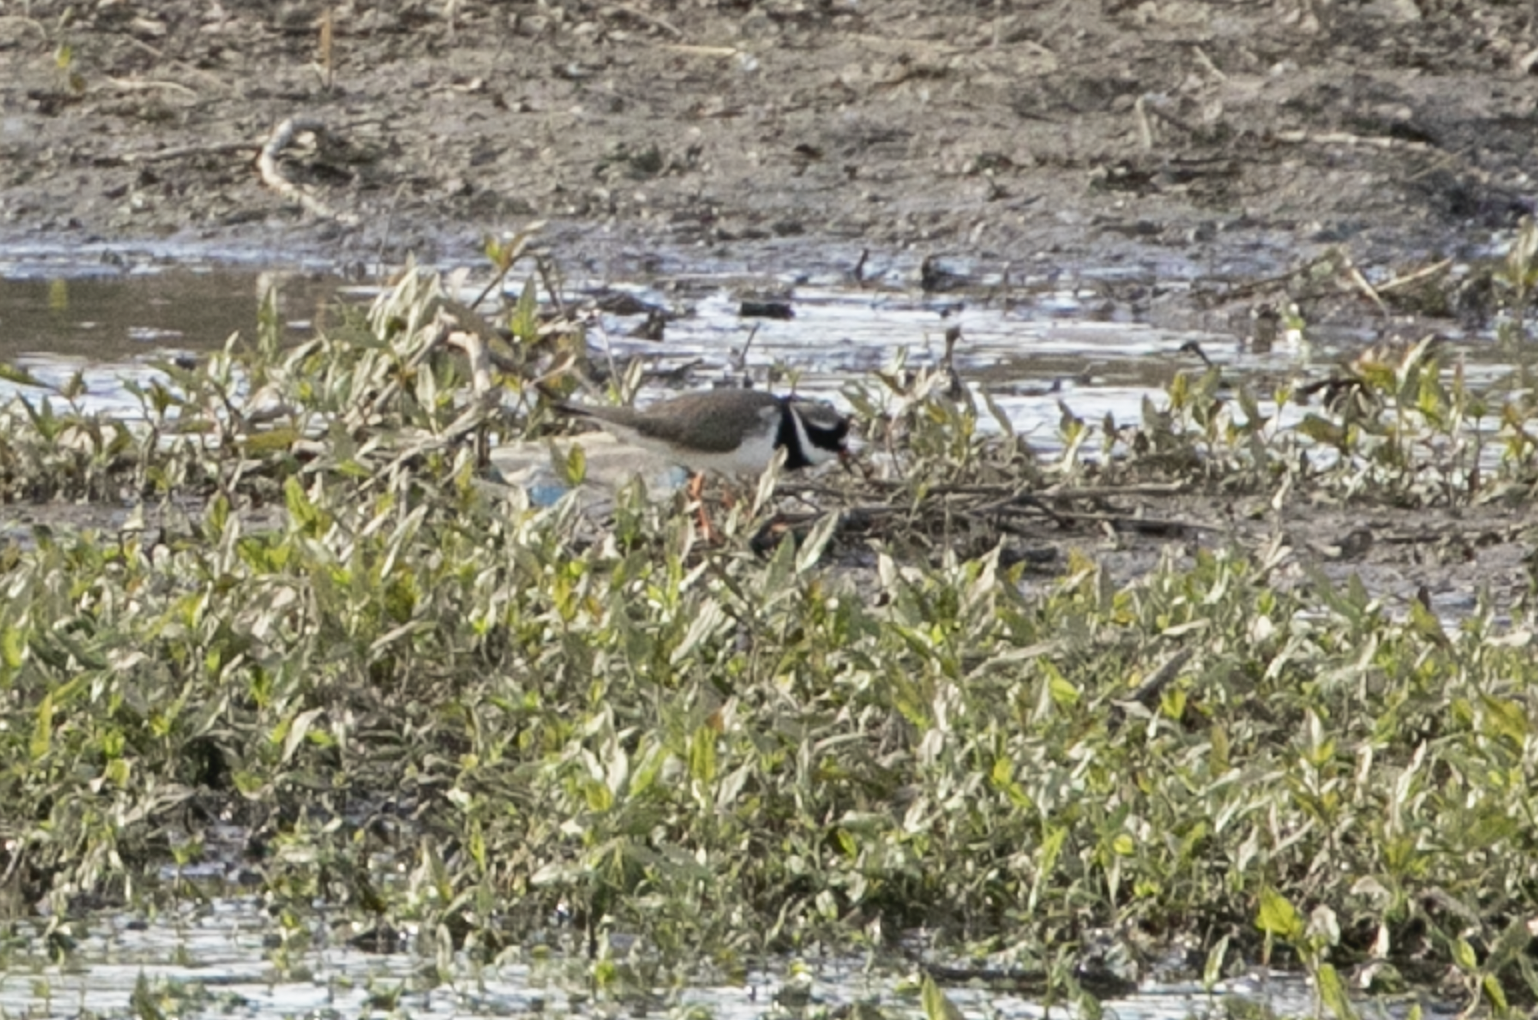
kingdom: Animalia
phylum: Chordata
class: Aves
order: Charadriiformes
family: Charadriidae
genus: Charadrius
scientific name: Charadrius hiaticula
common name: Common ringed plover
